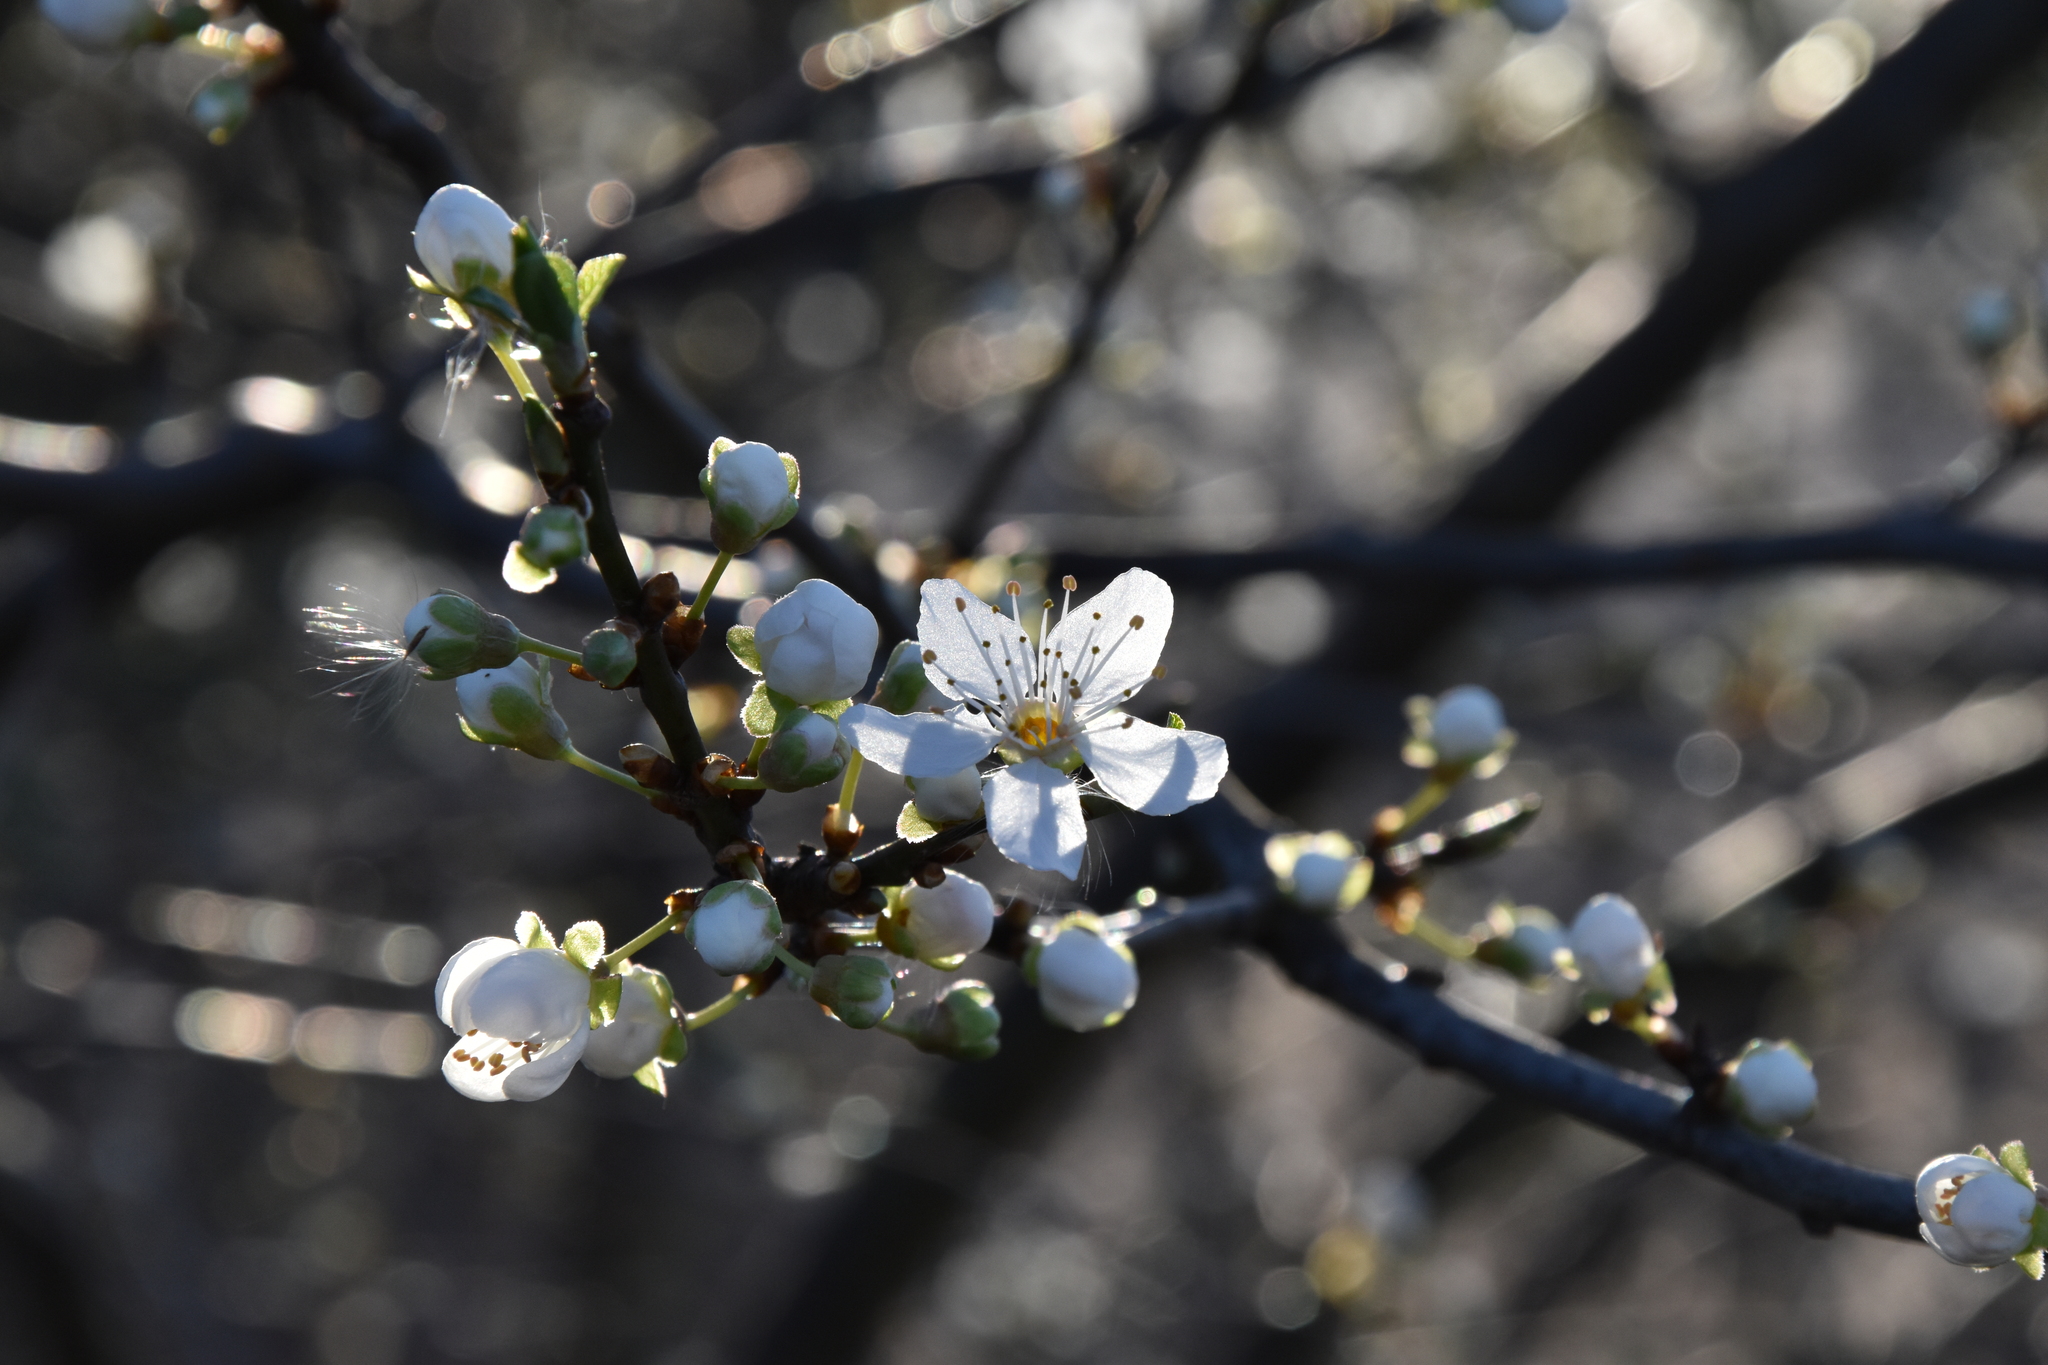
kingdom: Plantae
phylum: Tracheophyta
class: Magnoliopsida
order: Rosales
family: Rosaceae
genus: Prunus
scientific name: Prunus cerasifera
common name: Cherry plum
